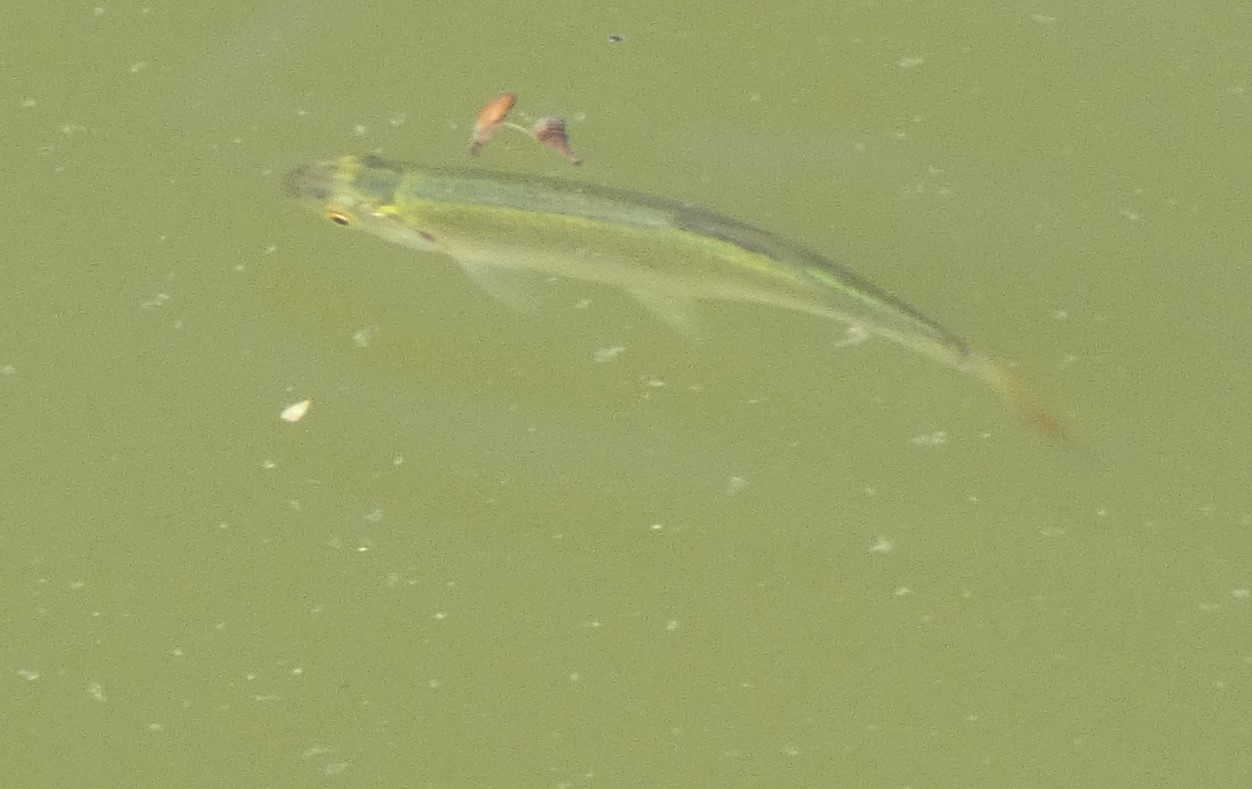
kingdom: Animalia
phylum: Chordata
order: Cypriniformes
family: Cyprinidae
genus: Scardinius
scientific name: Scardinius erythrophthalmus
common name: Rudd
